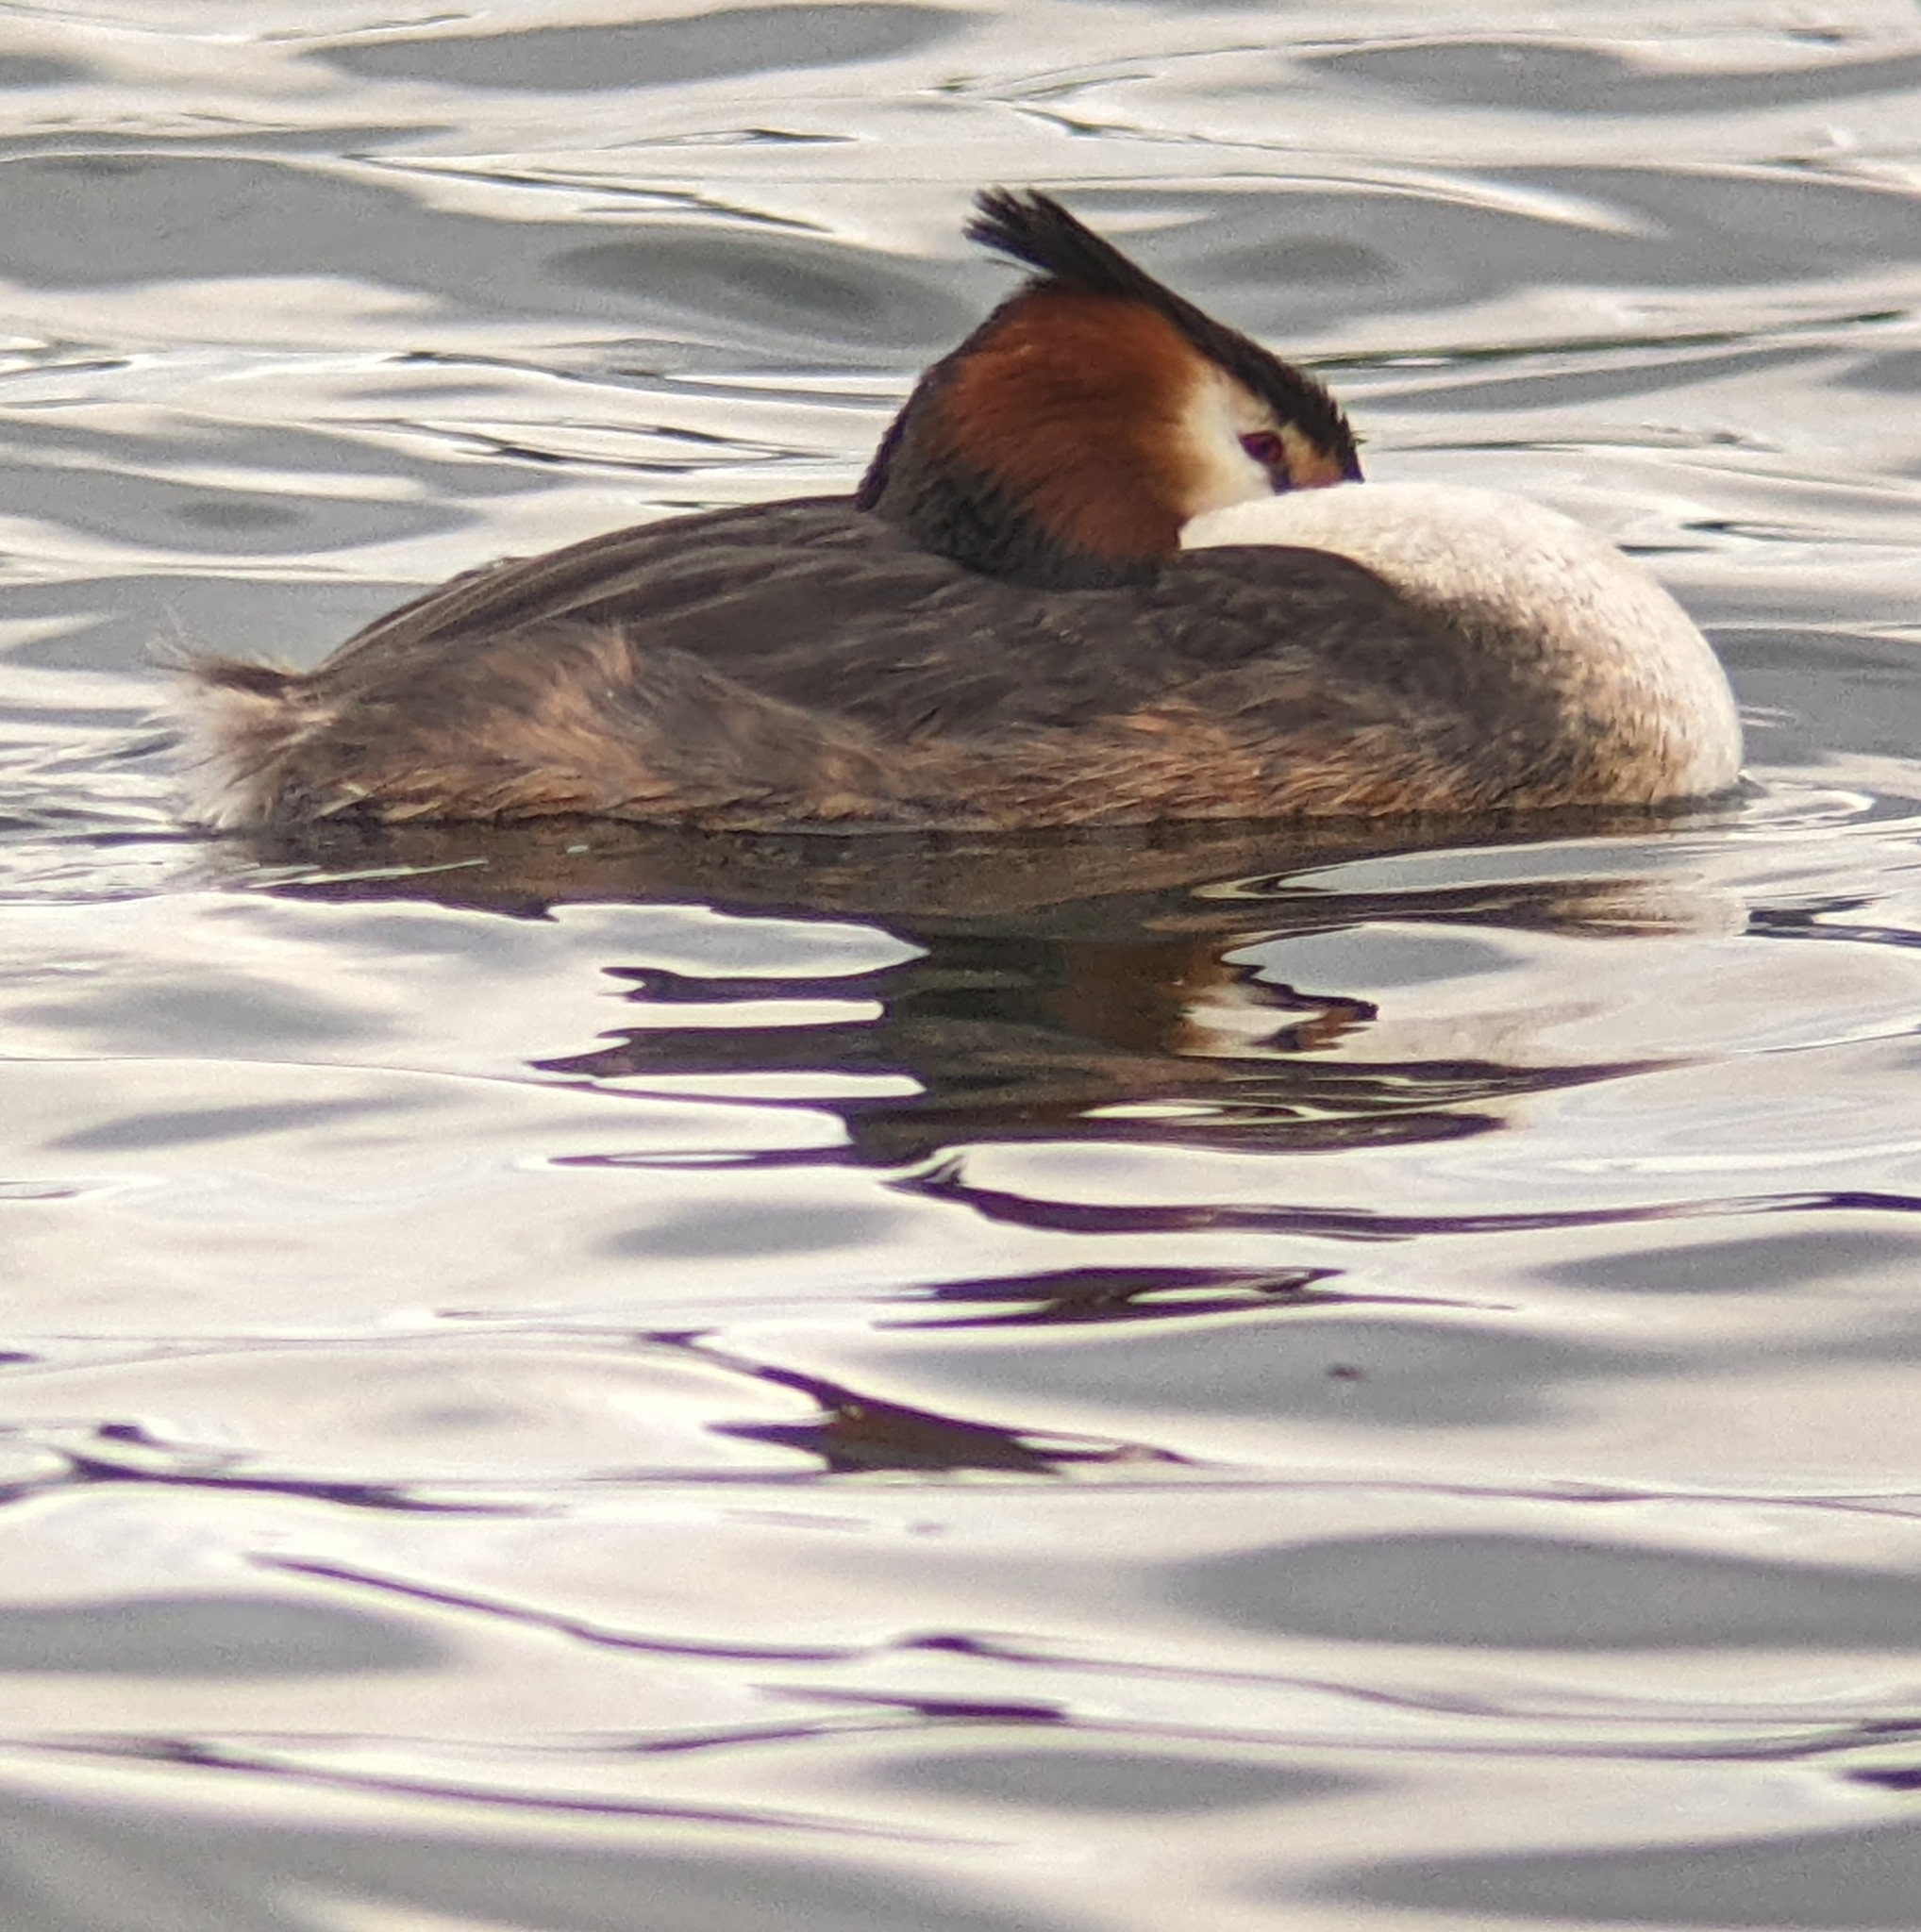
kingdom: Animalia
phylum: Chordata
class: Aves
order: Podicipediformes
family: Podicipedidae
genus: Podiceps
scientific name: Podiceps cristatus
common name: Great crested grebe
